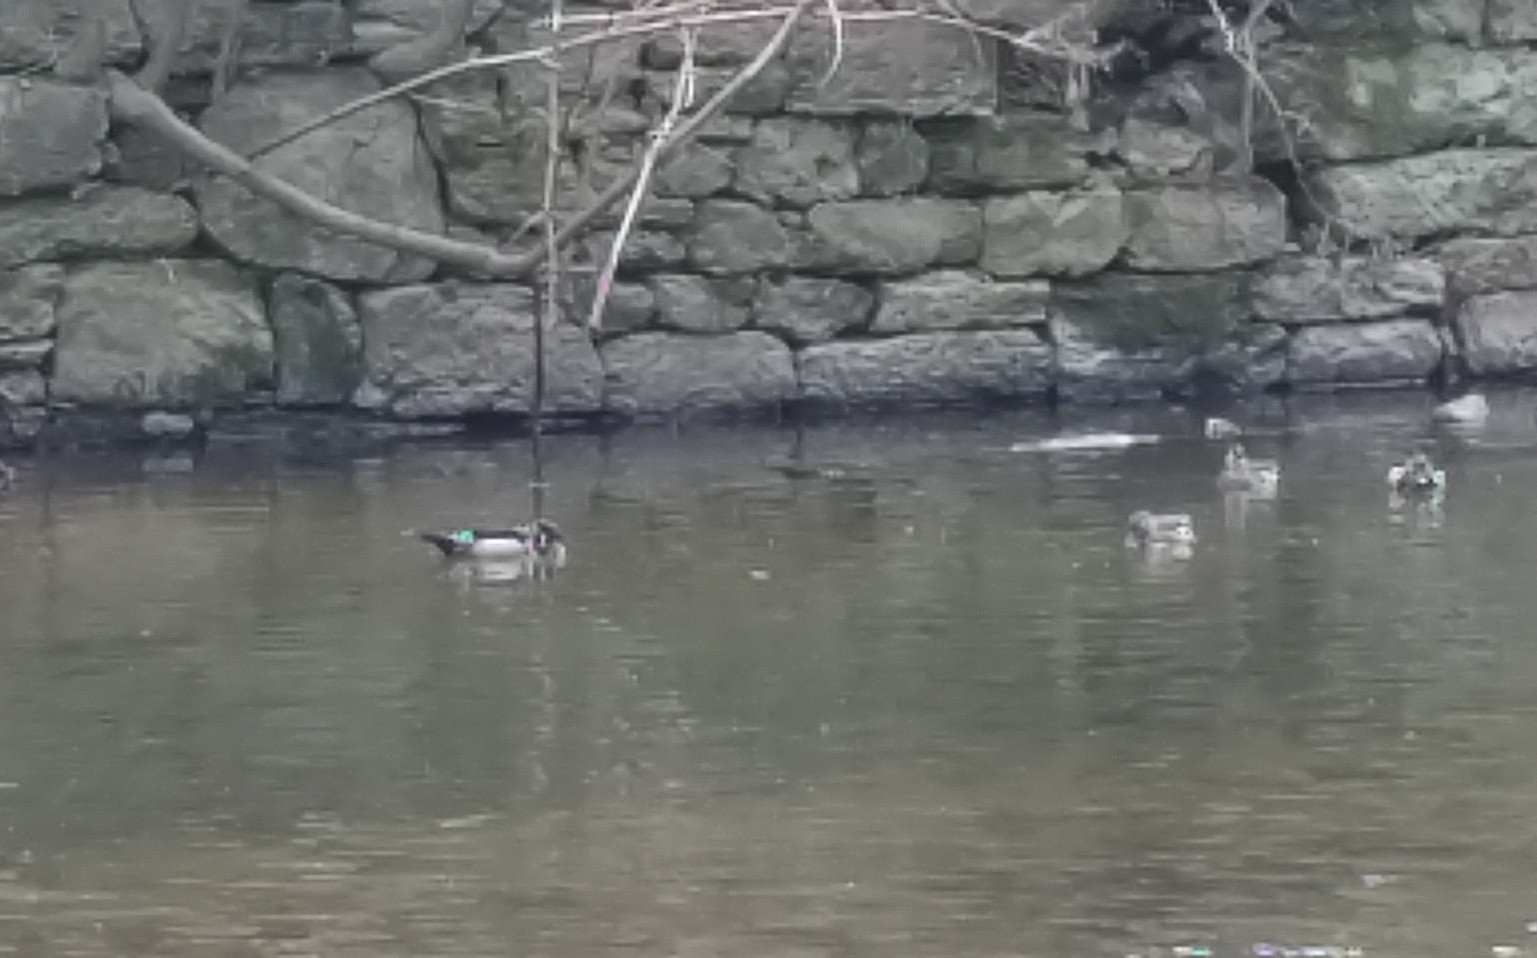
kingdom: Animalia
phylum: Chordata
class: Aves
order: Anseriformes
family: Anatidae
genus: Aix
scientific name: Aix sponsa
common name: Wood duck
